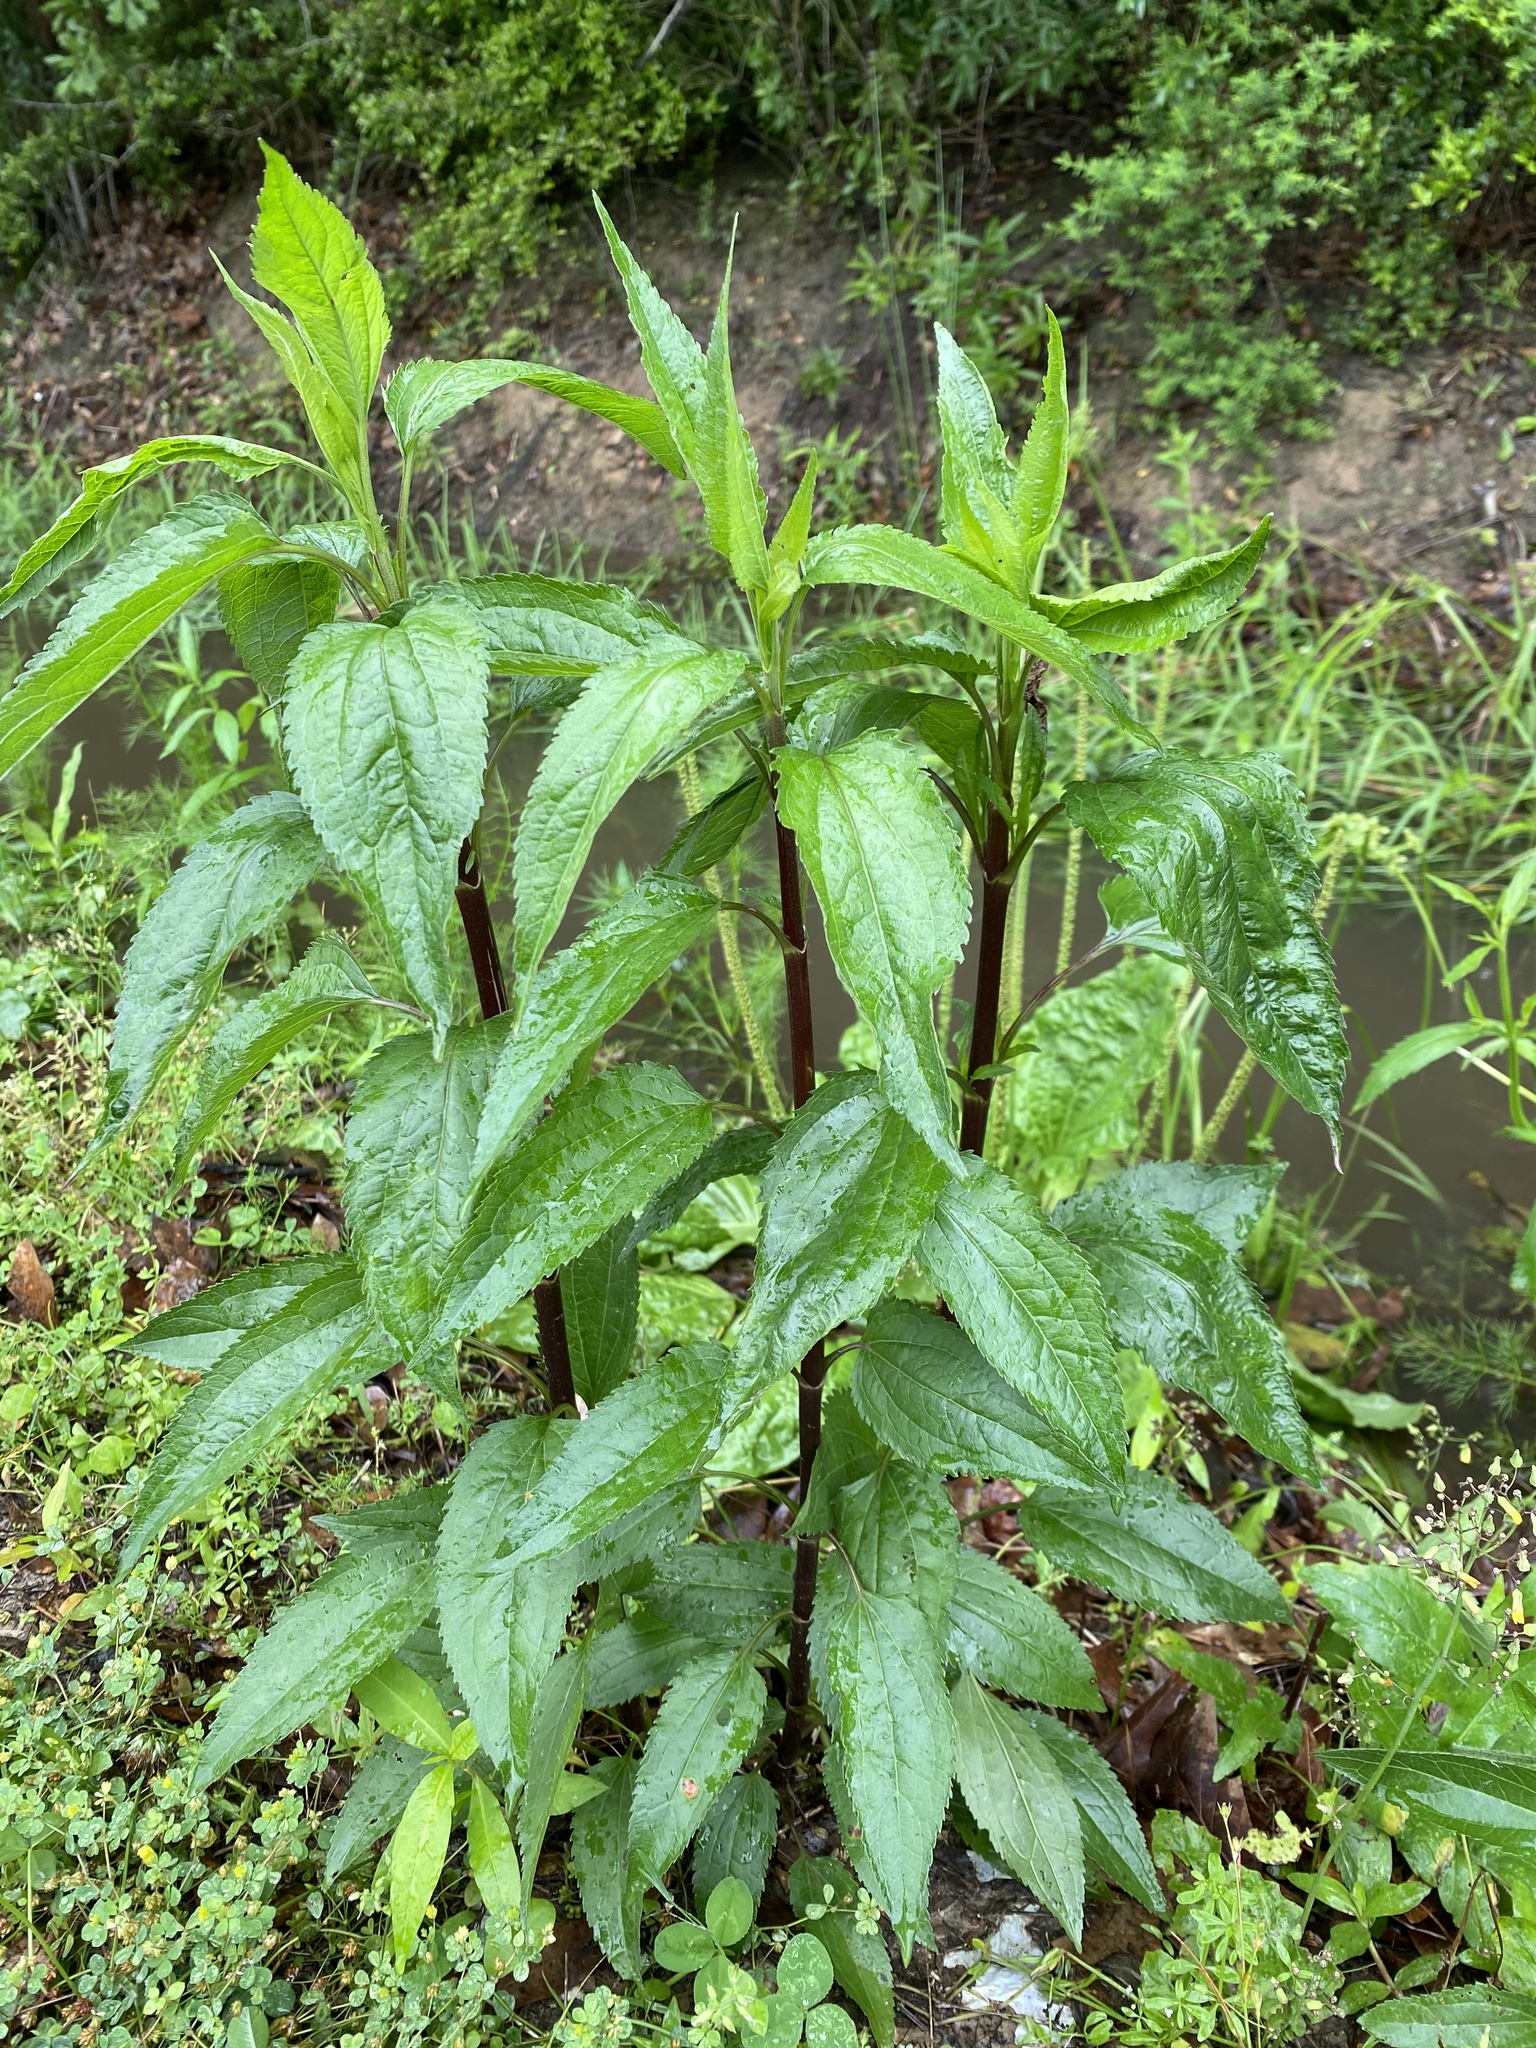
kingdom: Plantae
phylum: Tracheophyta
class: Magnoliopsida
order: Asterales
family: Asteraceae
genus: Eupatorium
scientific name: Eupatorium serotinum
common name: Late boneset
